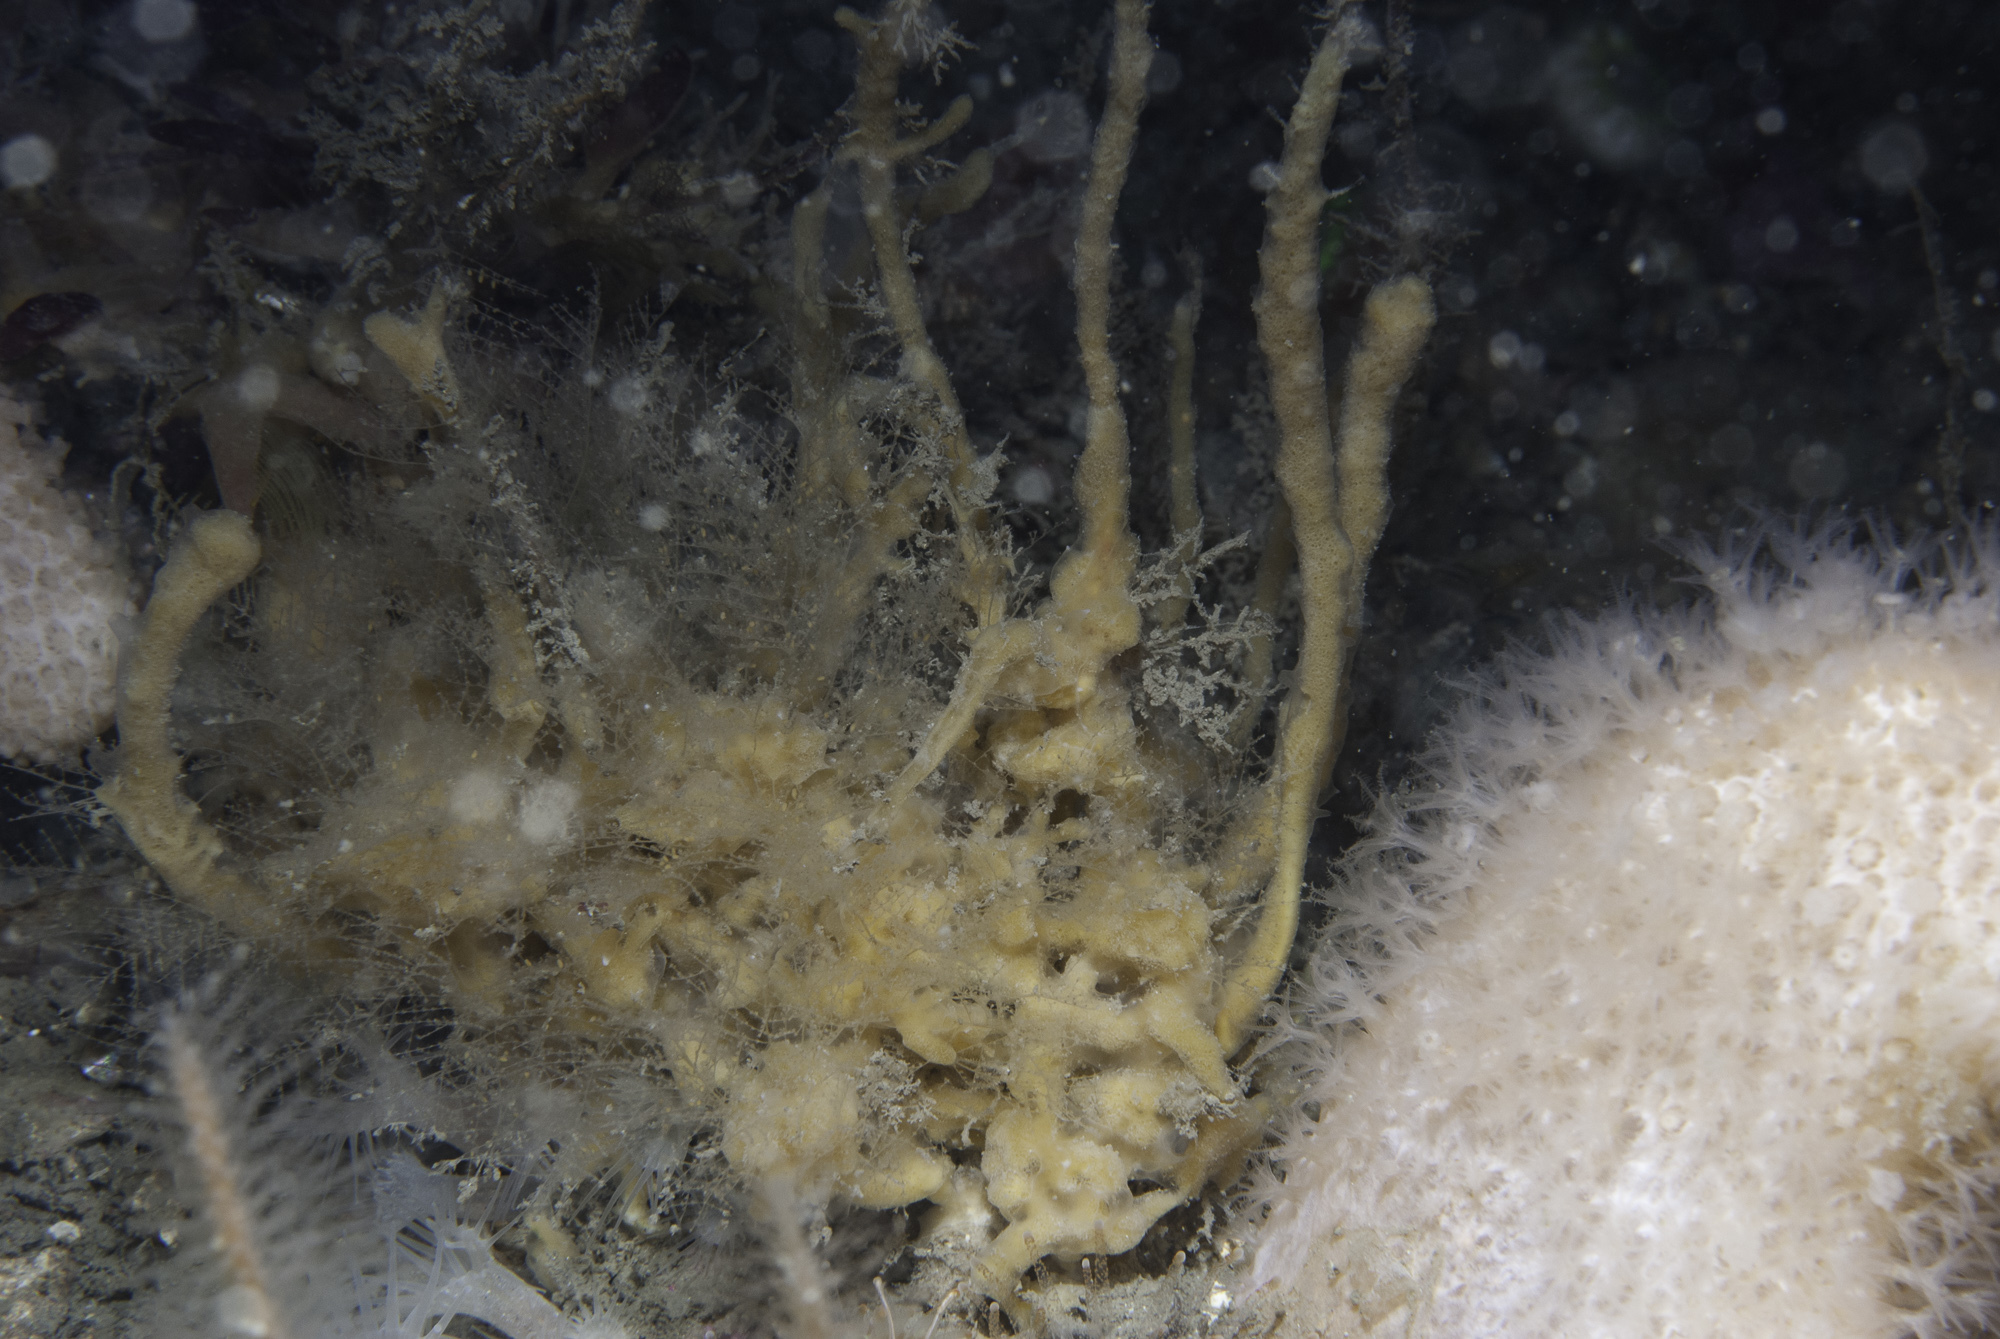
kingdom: Animalia
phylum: Porifera
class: Demospongiae
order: Poecilosclerida
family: Acarnidae
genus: Iophon
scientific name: Iophon hyndmani
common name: Hyndman's horny sponge
